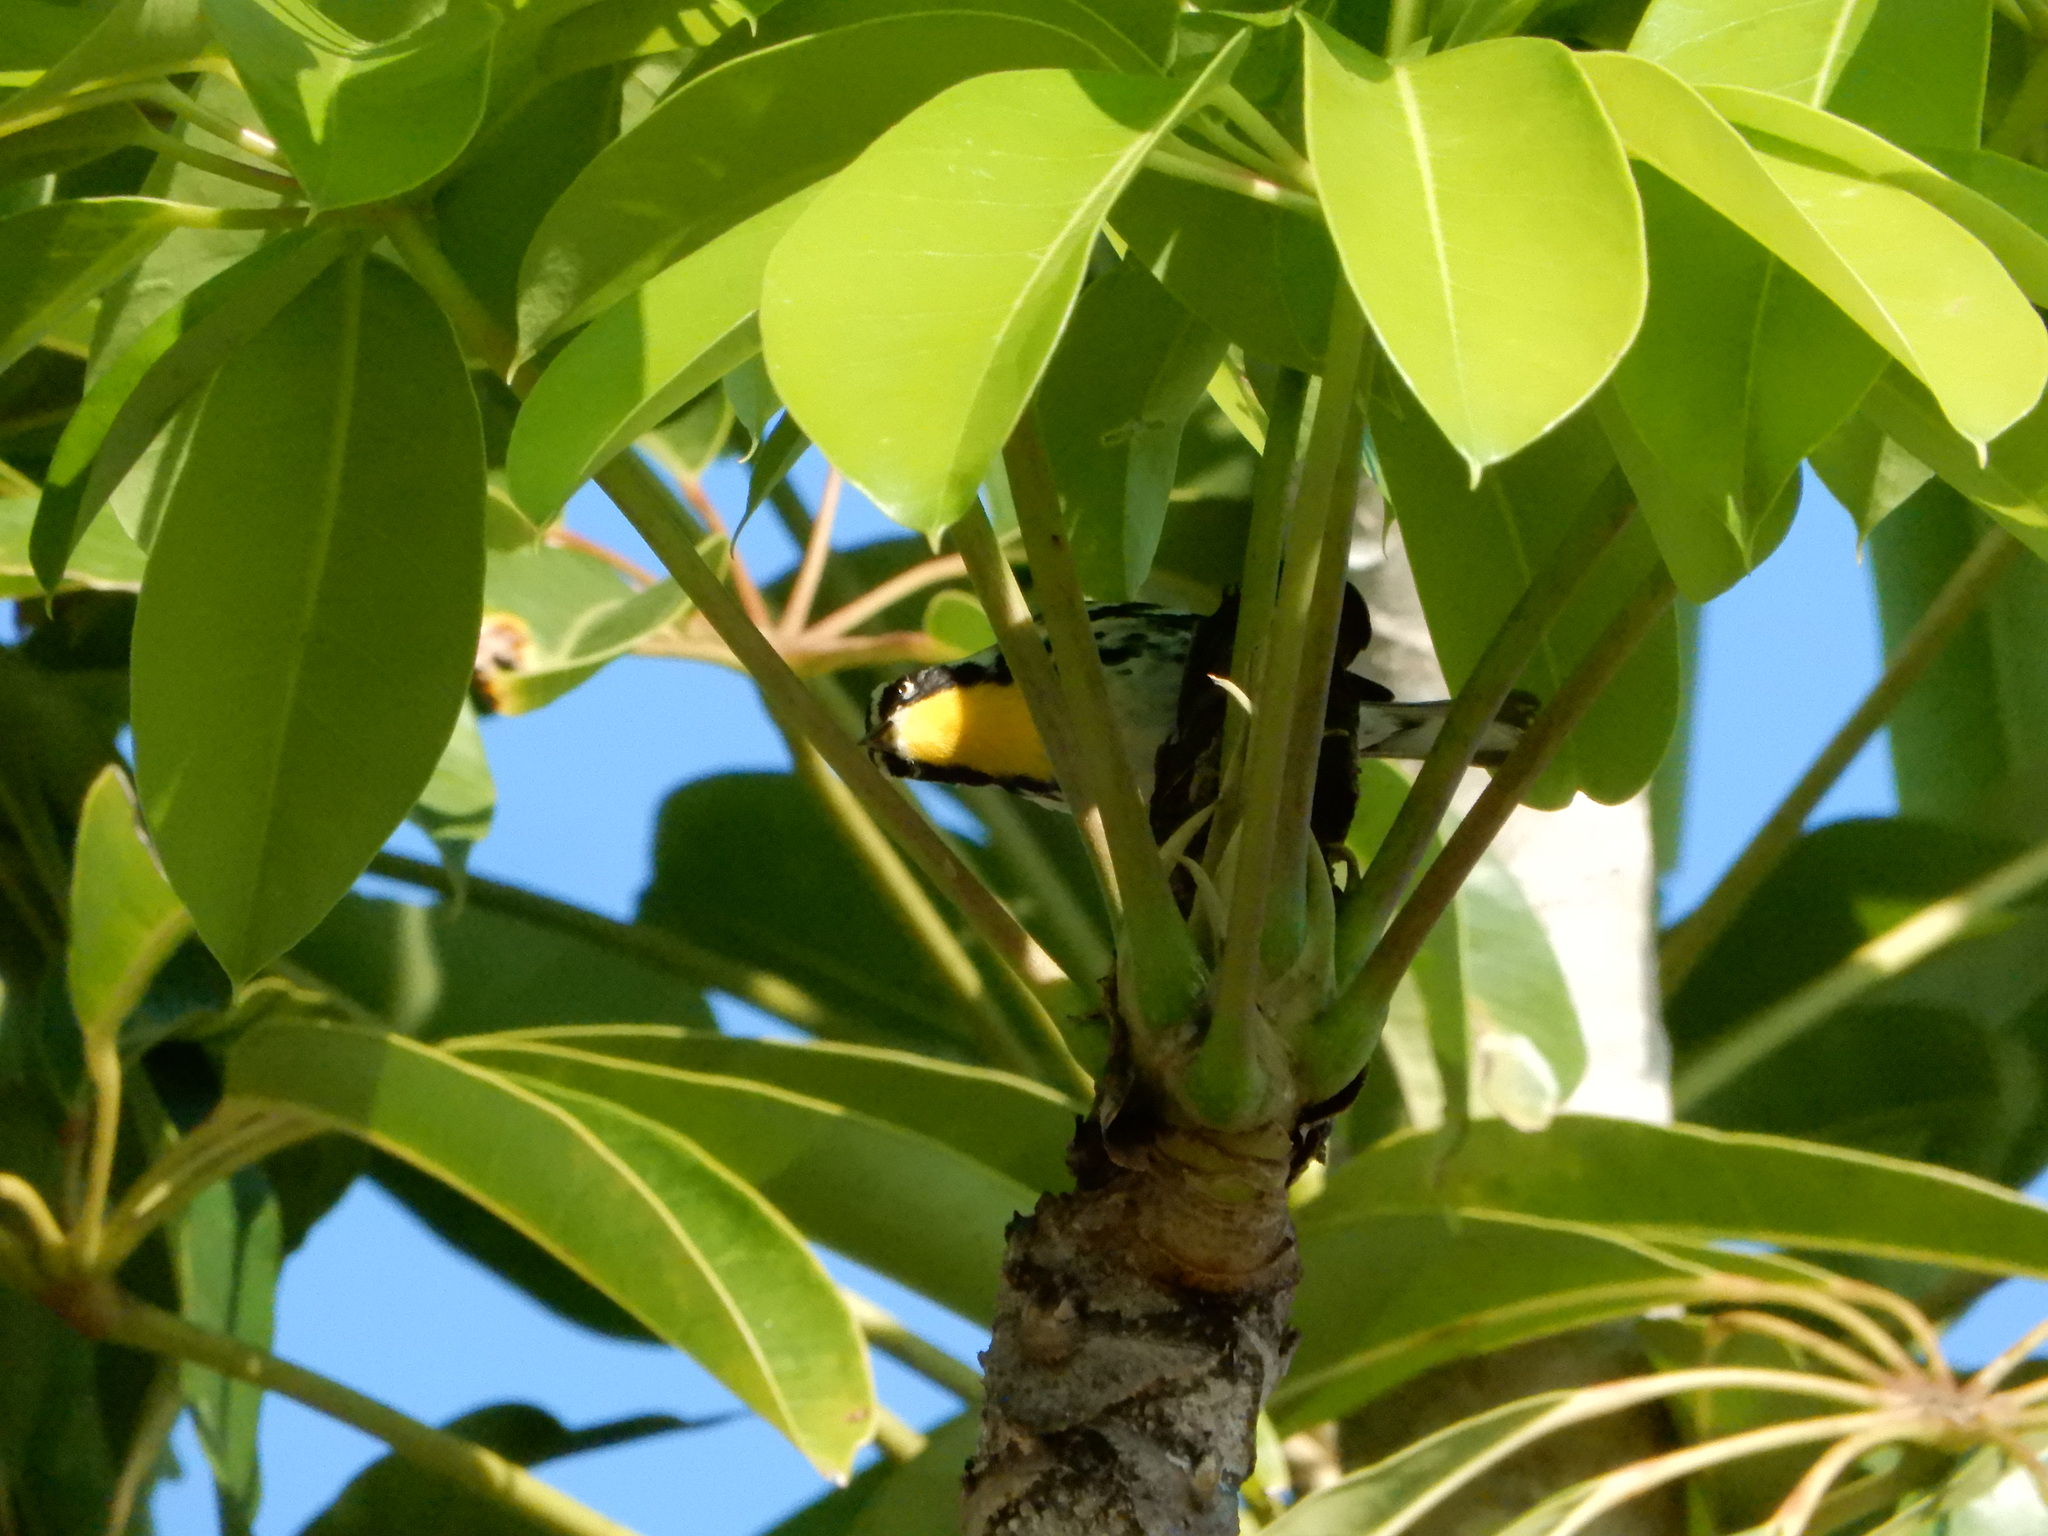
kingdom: Animalia
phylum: Chordata
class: Aves
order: Passeriformes
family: Parulidae
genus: Setophaga
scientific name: Setophaga dominica
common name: Yellow-throated warbler
